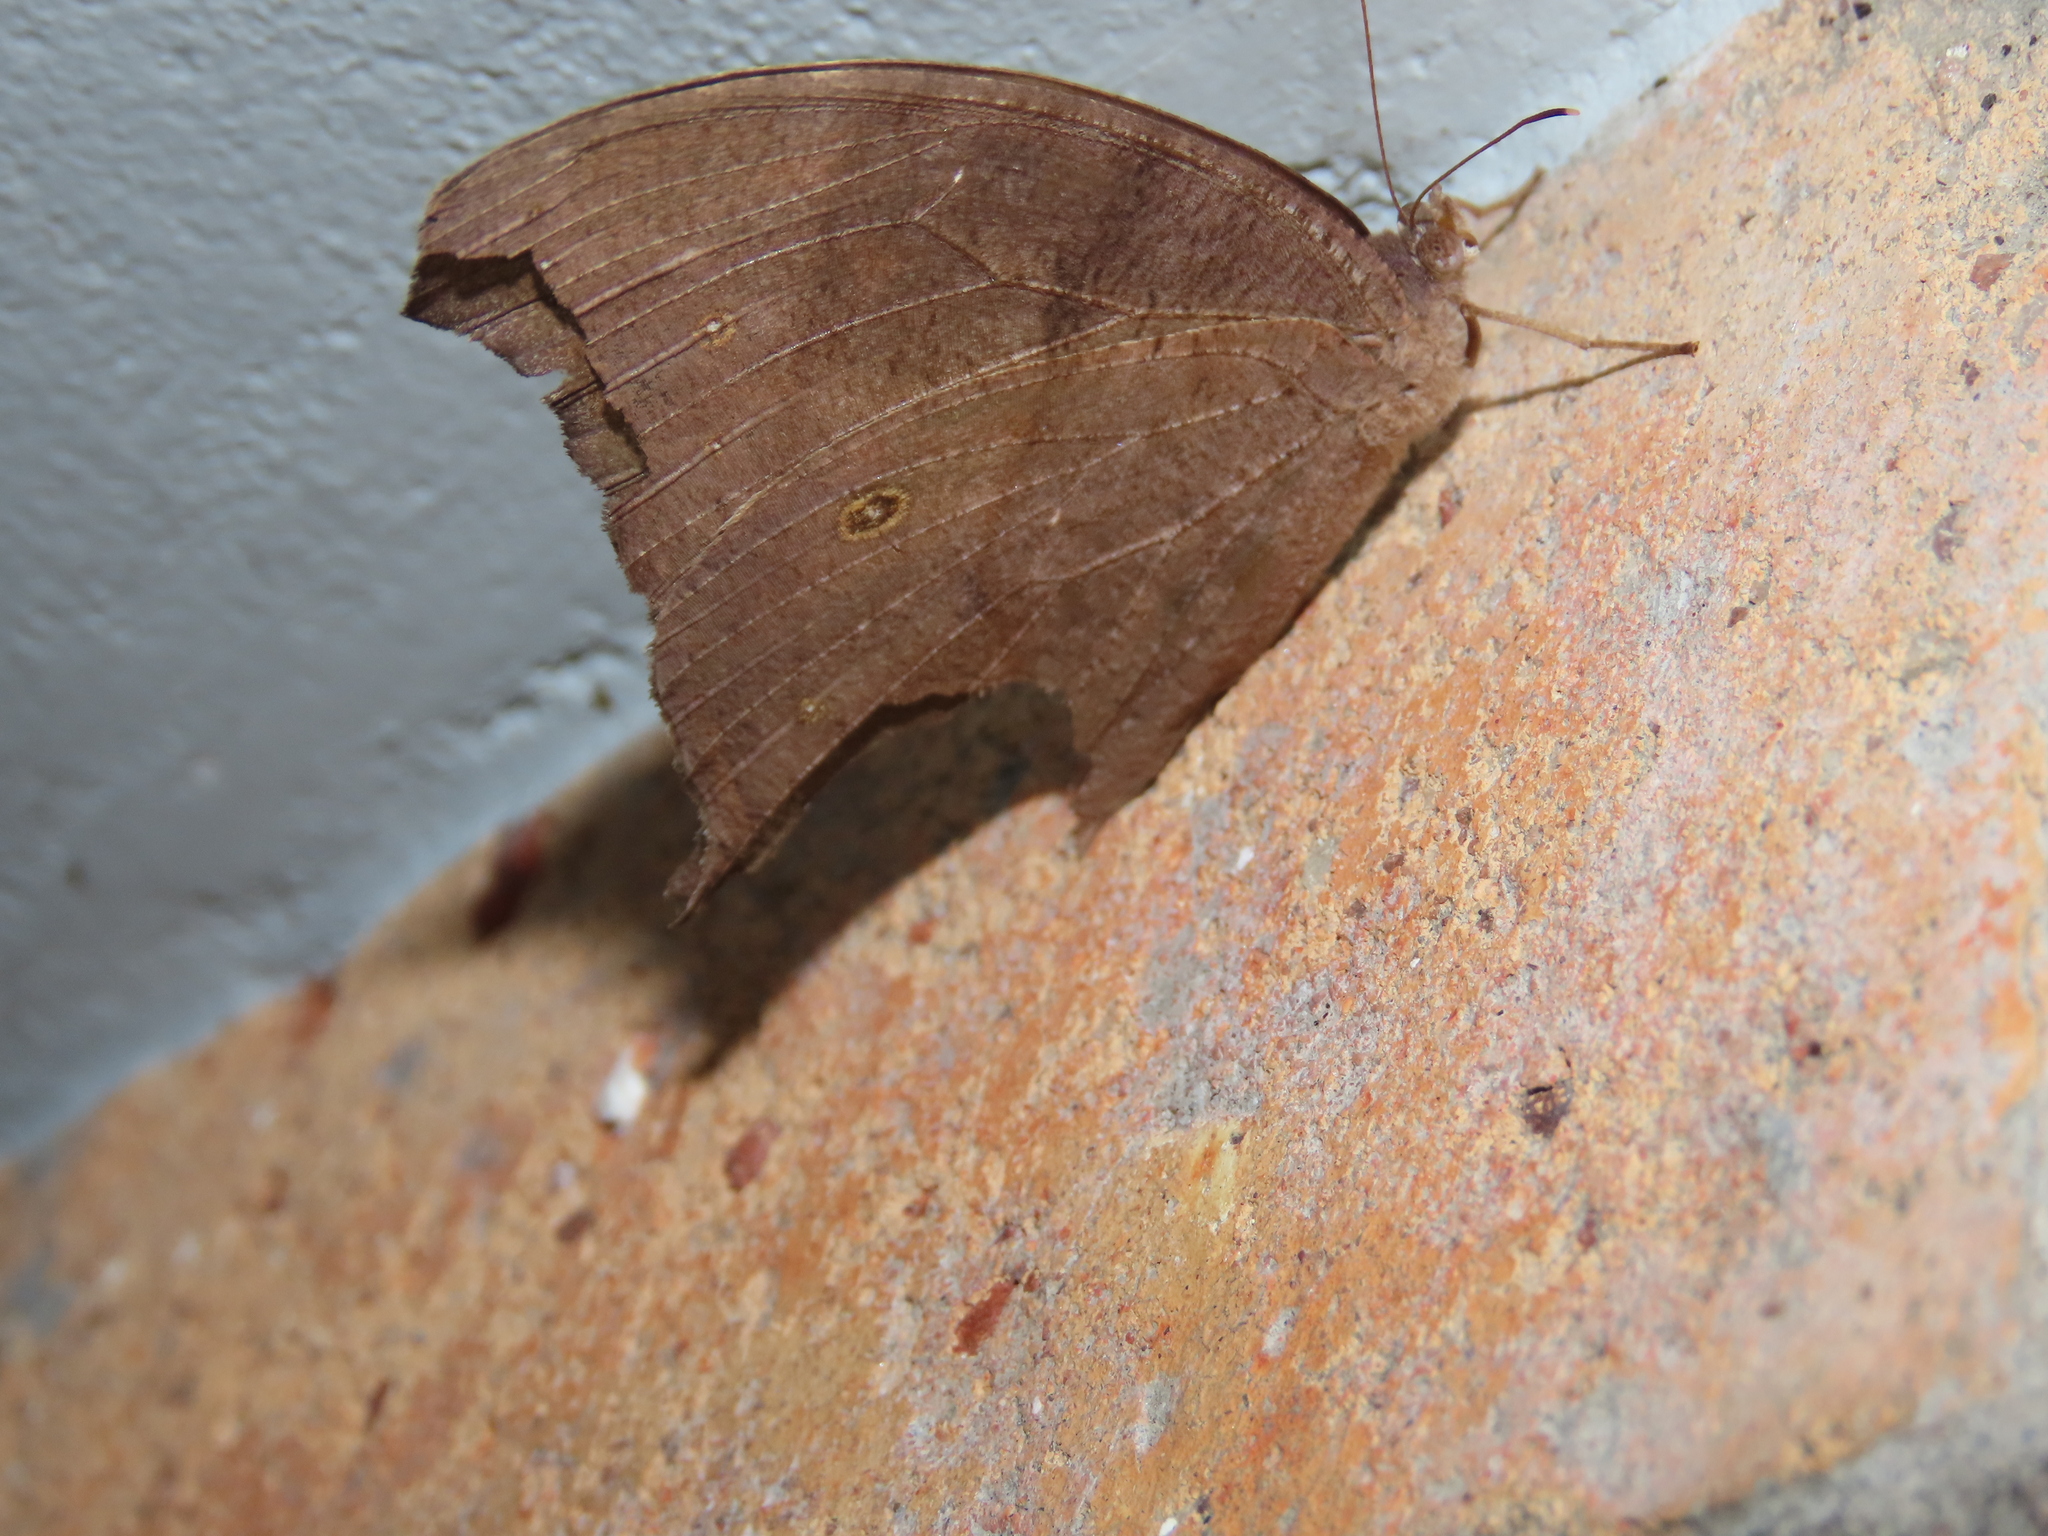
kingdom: Animalia
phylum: Arthropoda
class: Insecta
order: Lepidoptera
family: Nymphalidae
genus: Melanitis
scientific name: Melanitis leda
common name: Twilight brown
